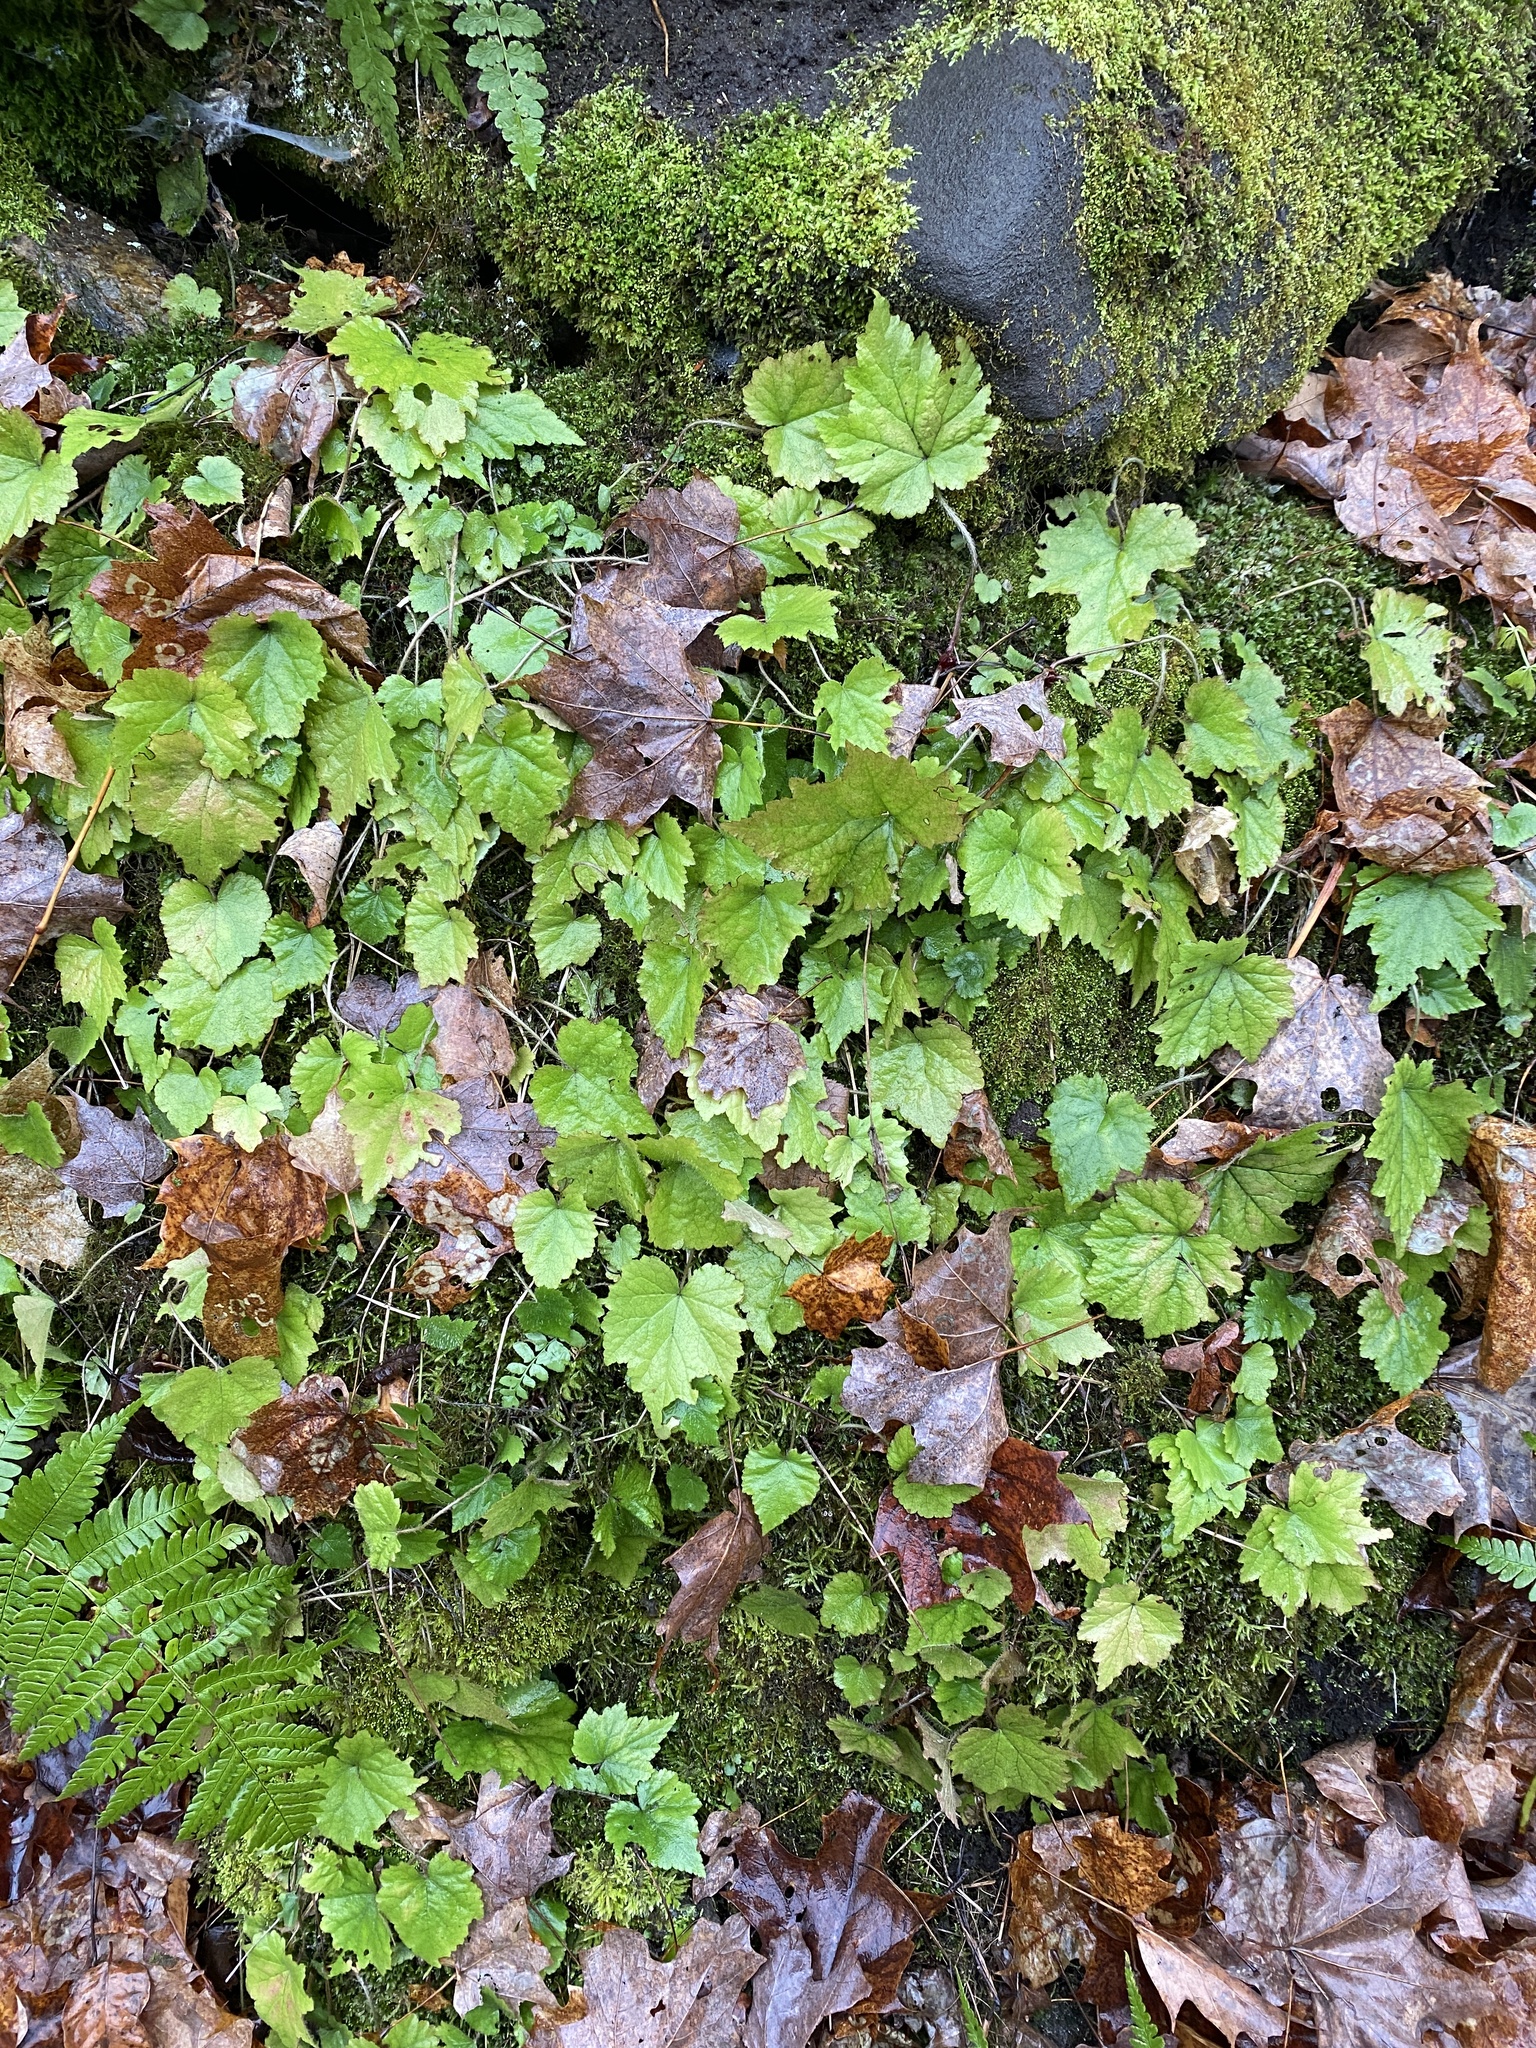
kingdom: Plantae
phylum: Tracheophyta
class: Magnoliopsida
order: Saxifragales
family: Saxifragaceae
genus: Mitella
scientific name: Mitella diphylla
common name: Coolwort
